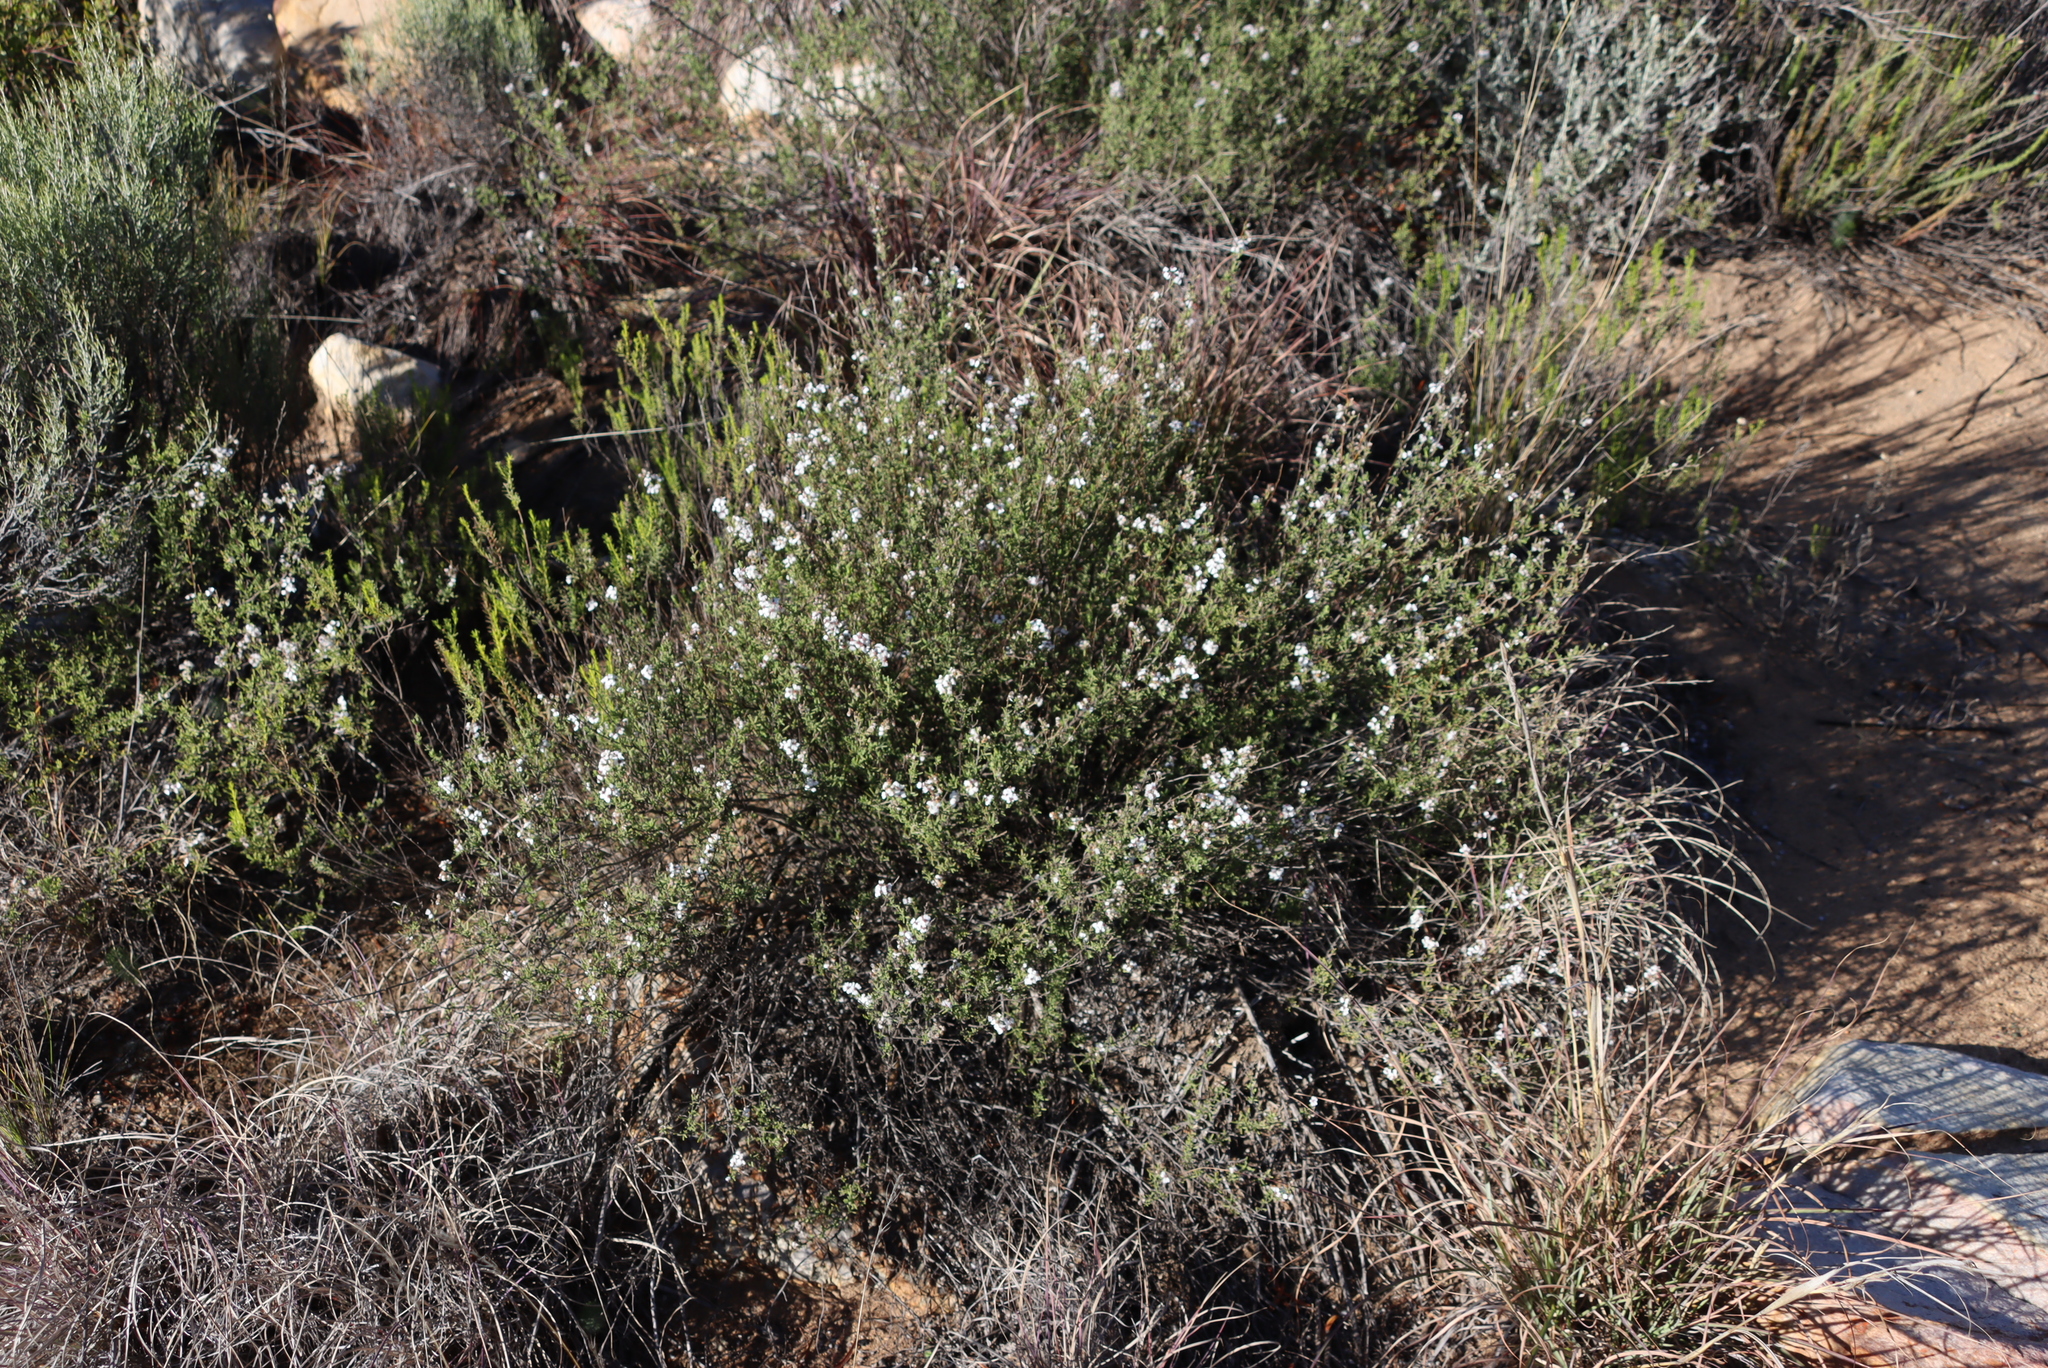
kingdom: Plantae
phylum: Tracheophyta
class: Magnoliopsida
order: Asterales
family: Asteraceae
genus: Eriocephalus
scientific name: Eriocephalus africanus
